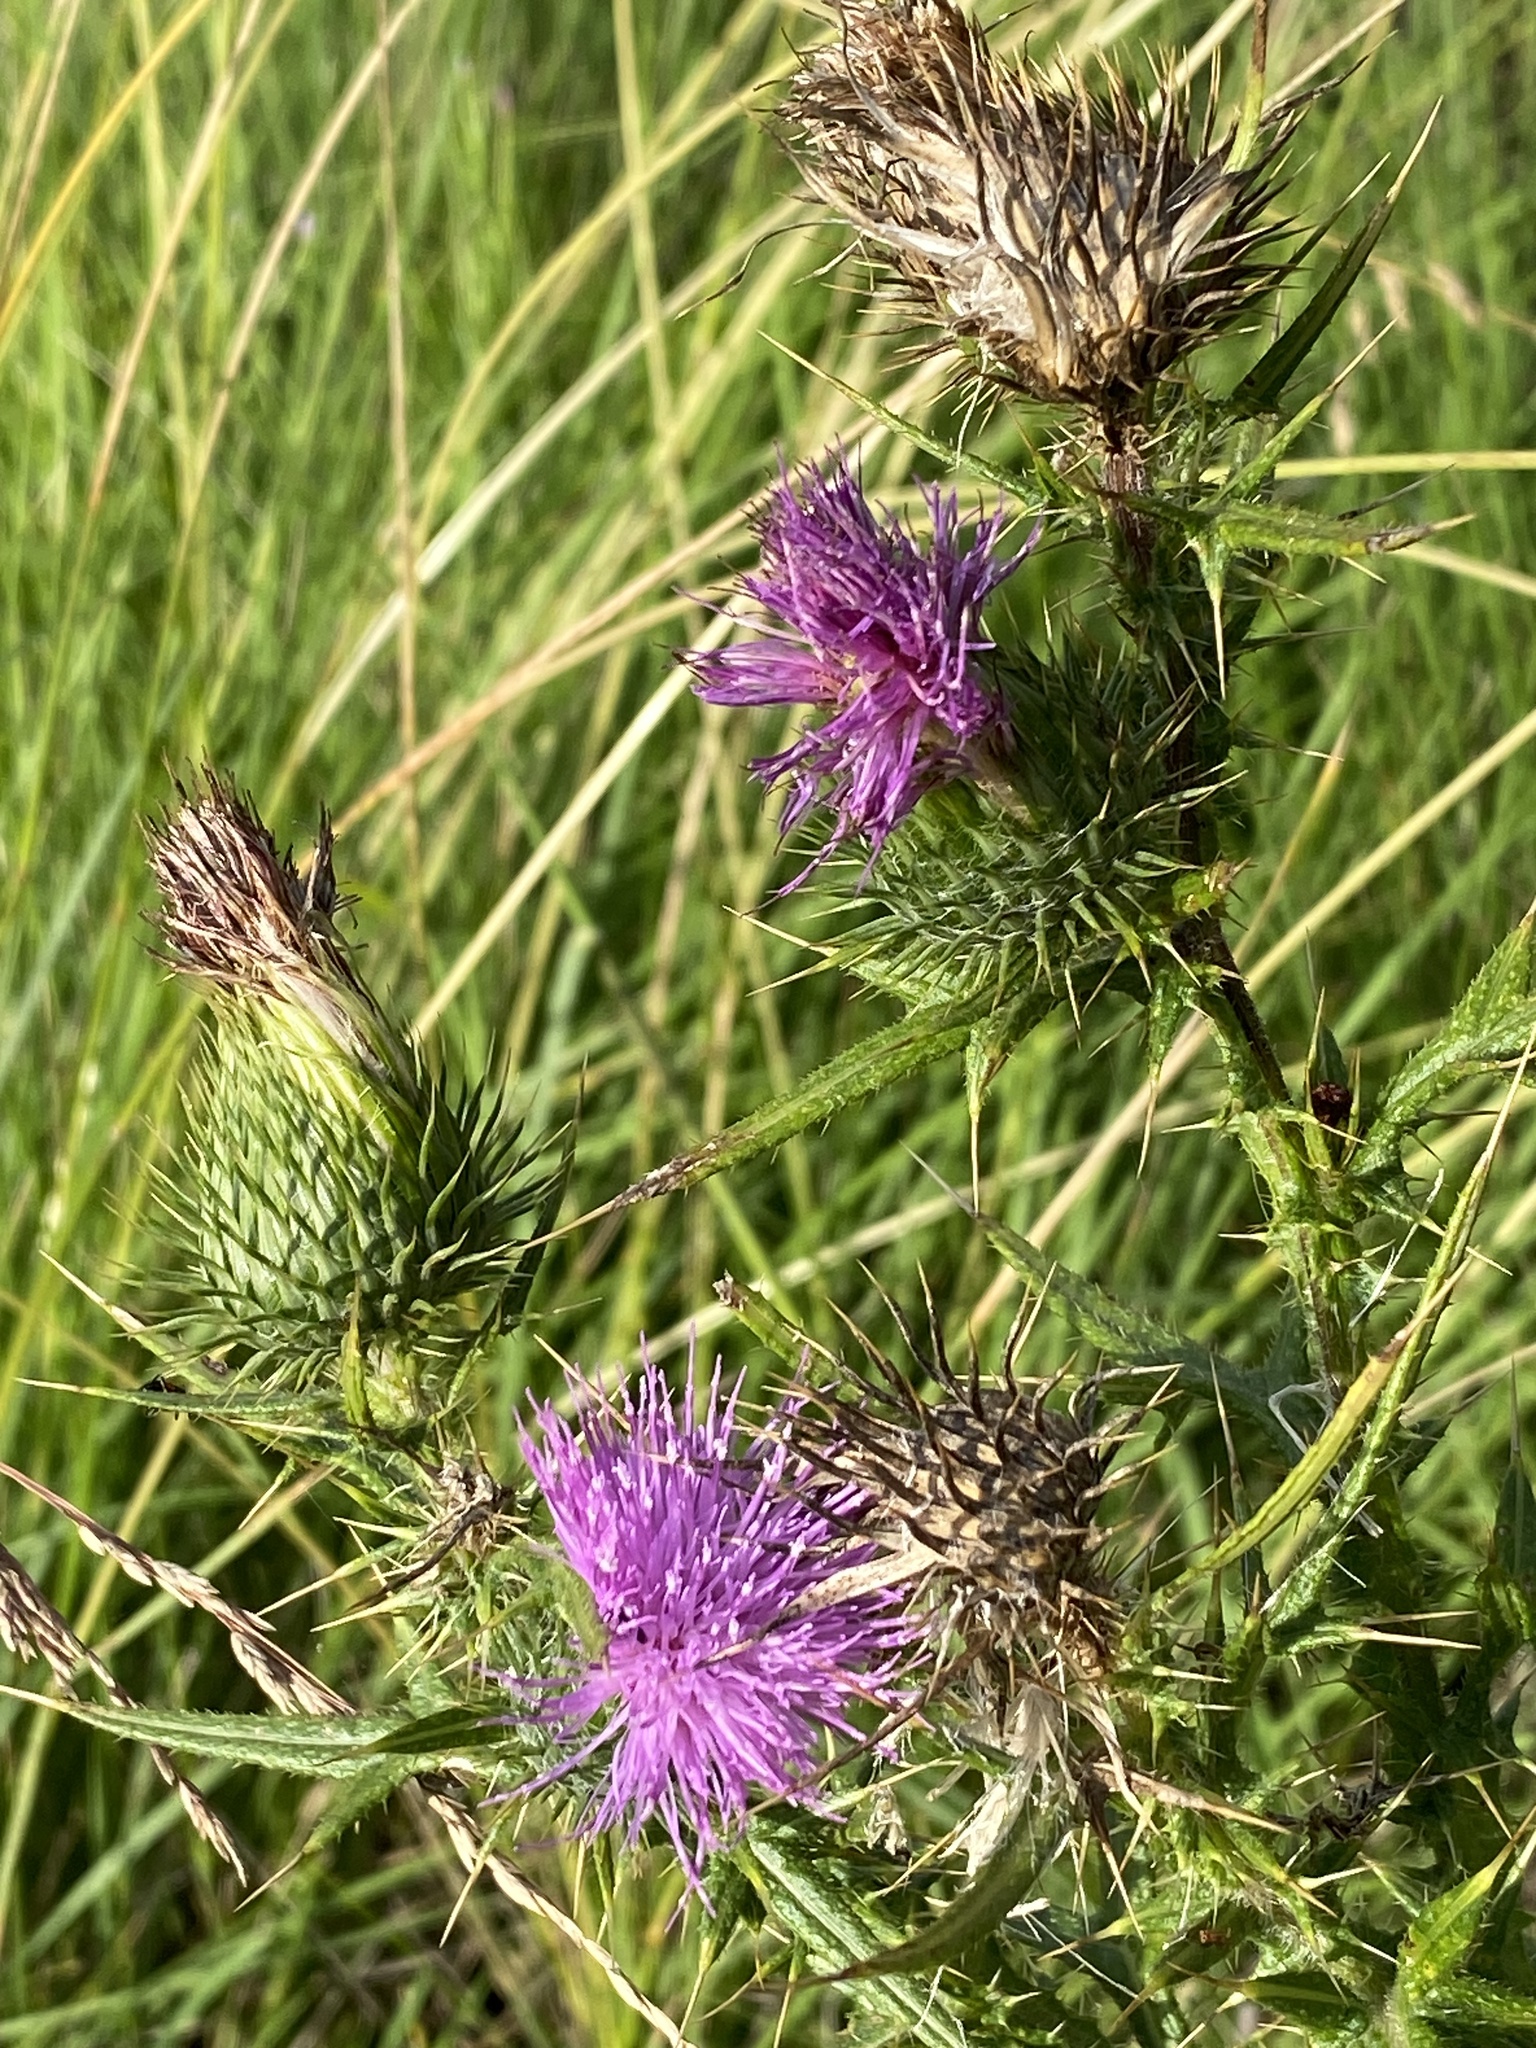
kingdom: Plantae
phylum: Tracheophyta
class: Magnoliopsida
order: Asterales
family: Asteraceae
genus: Cirsium
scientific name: Cirsium vulgare
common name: Bull thistle
